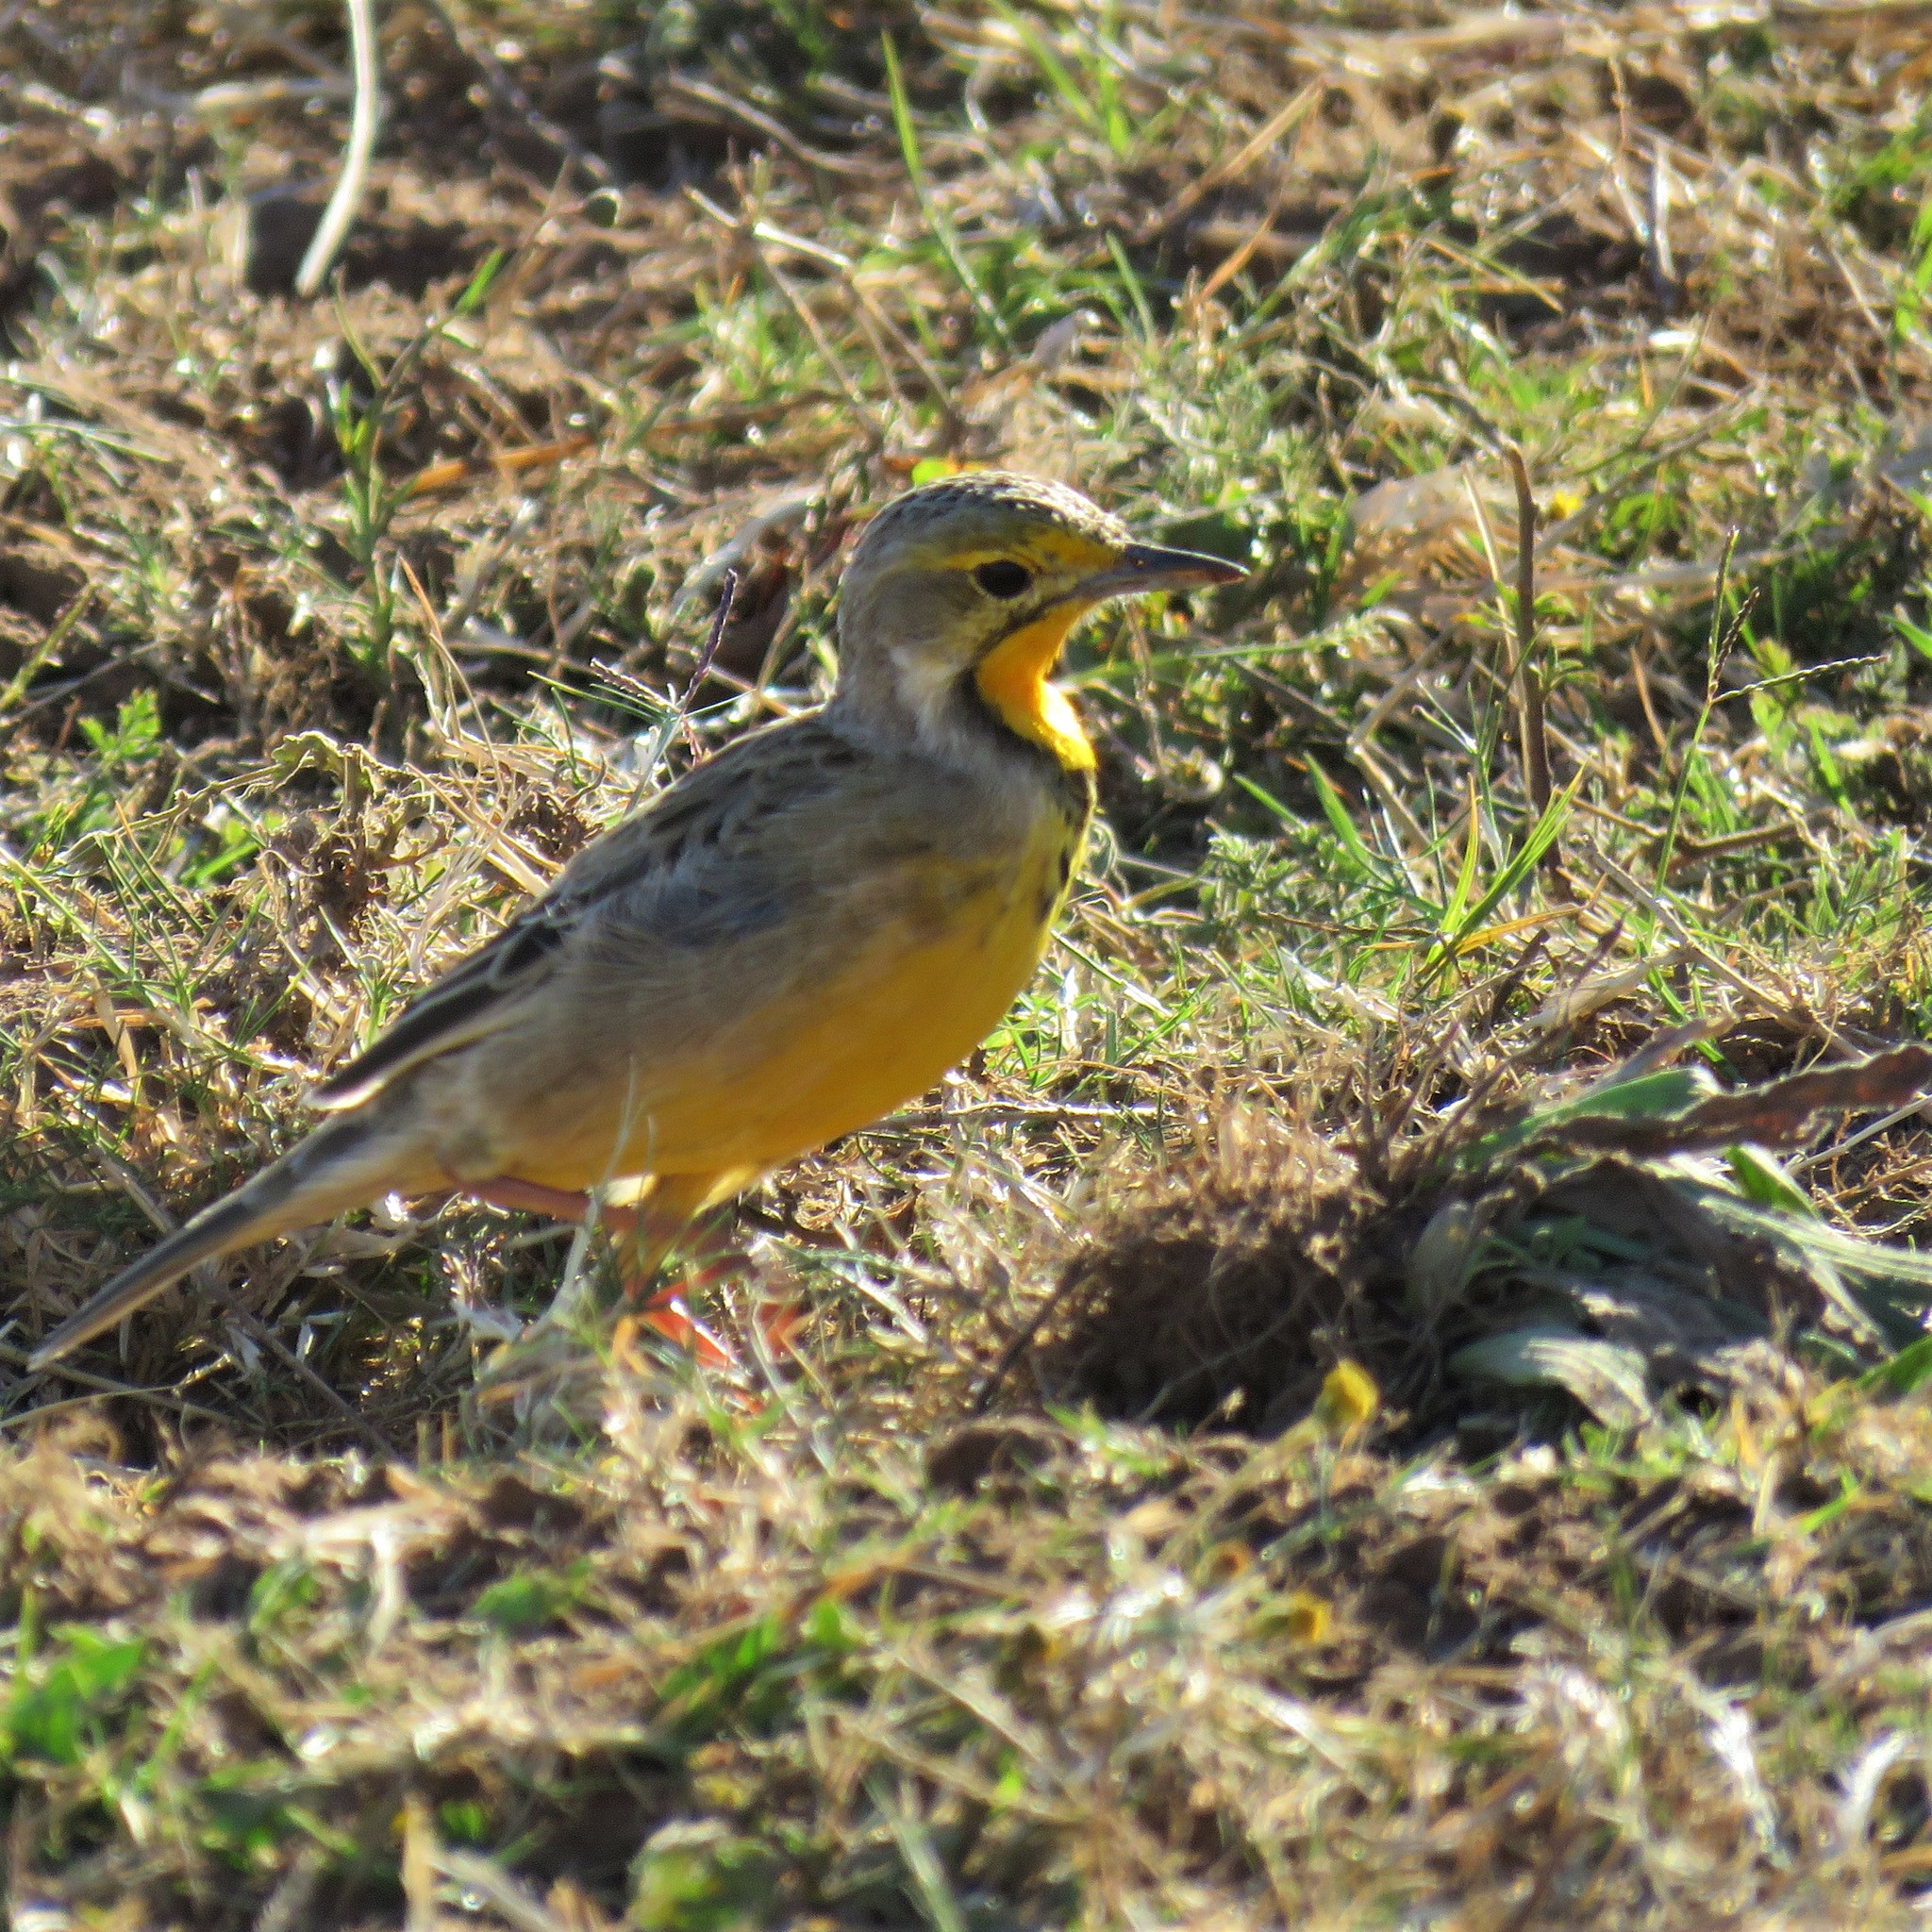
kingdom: Animalia
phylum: Chordata
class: Aves
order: Passeriformes
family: Motacillidae
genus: Macronyx
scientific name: Macronyx capensis
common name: Cape longclaw
